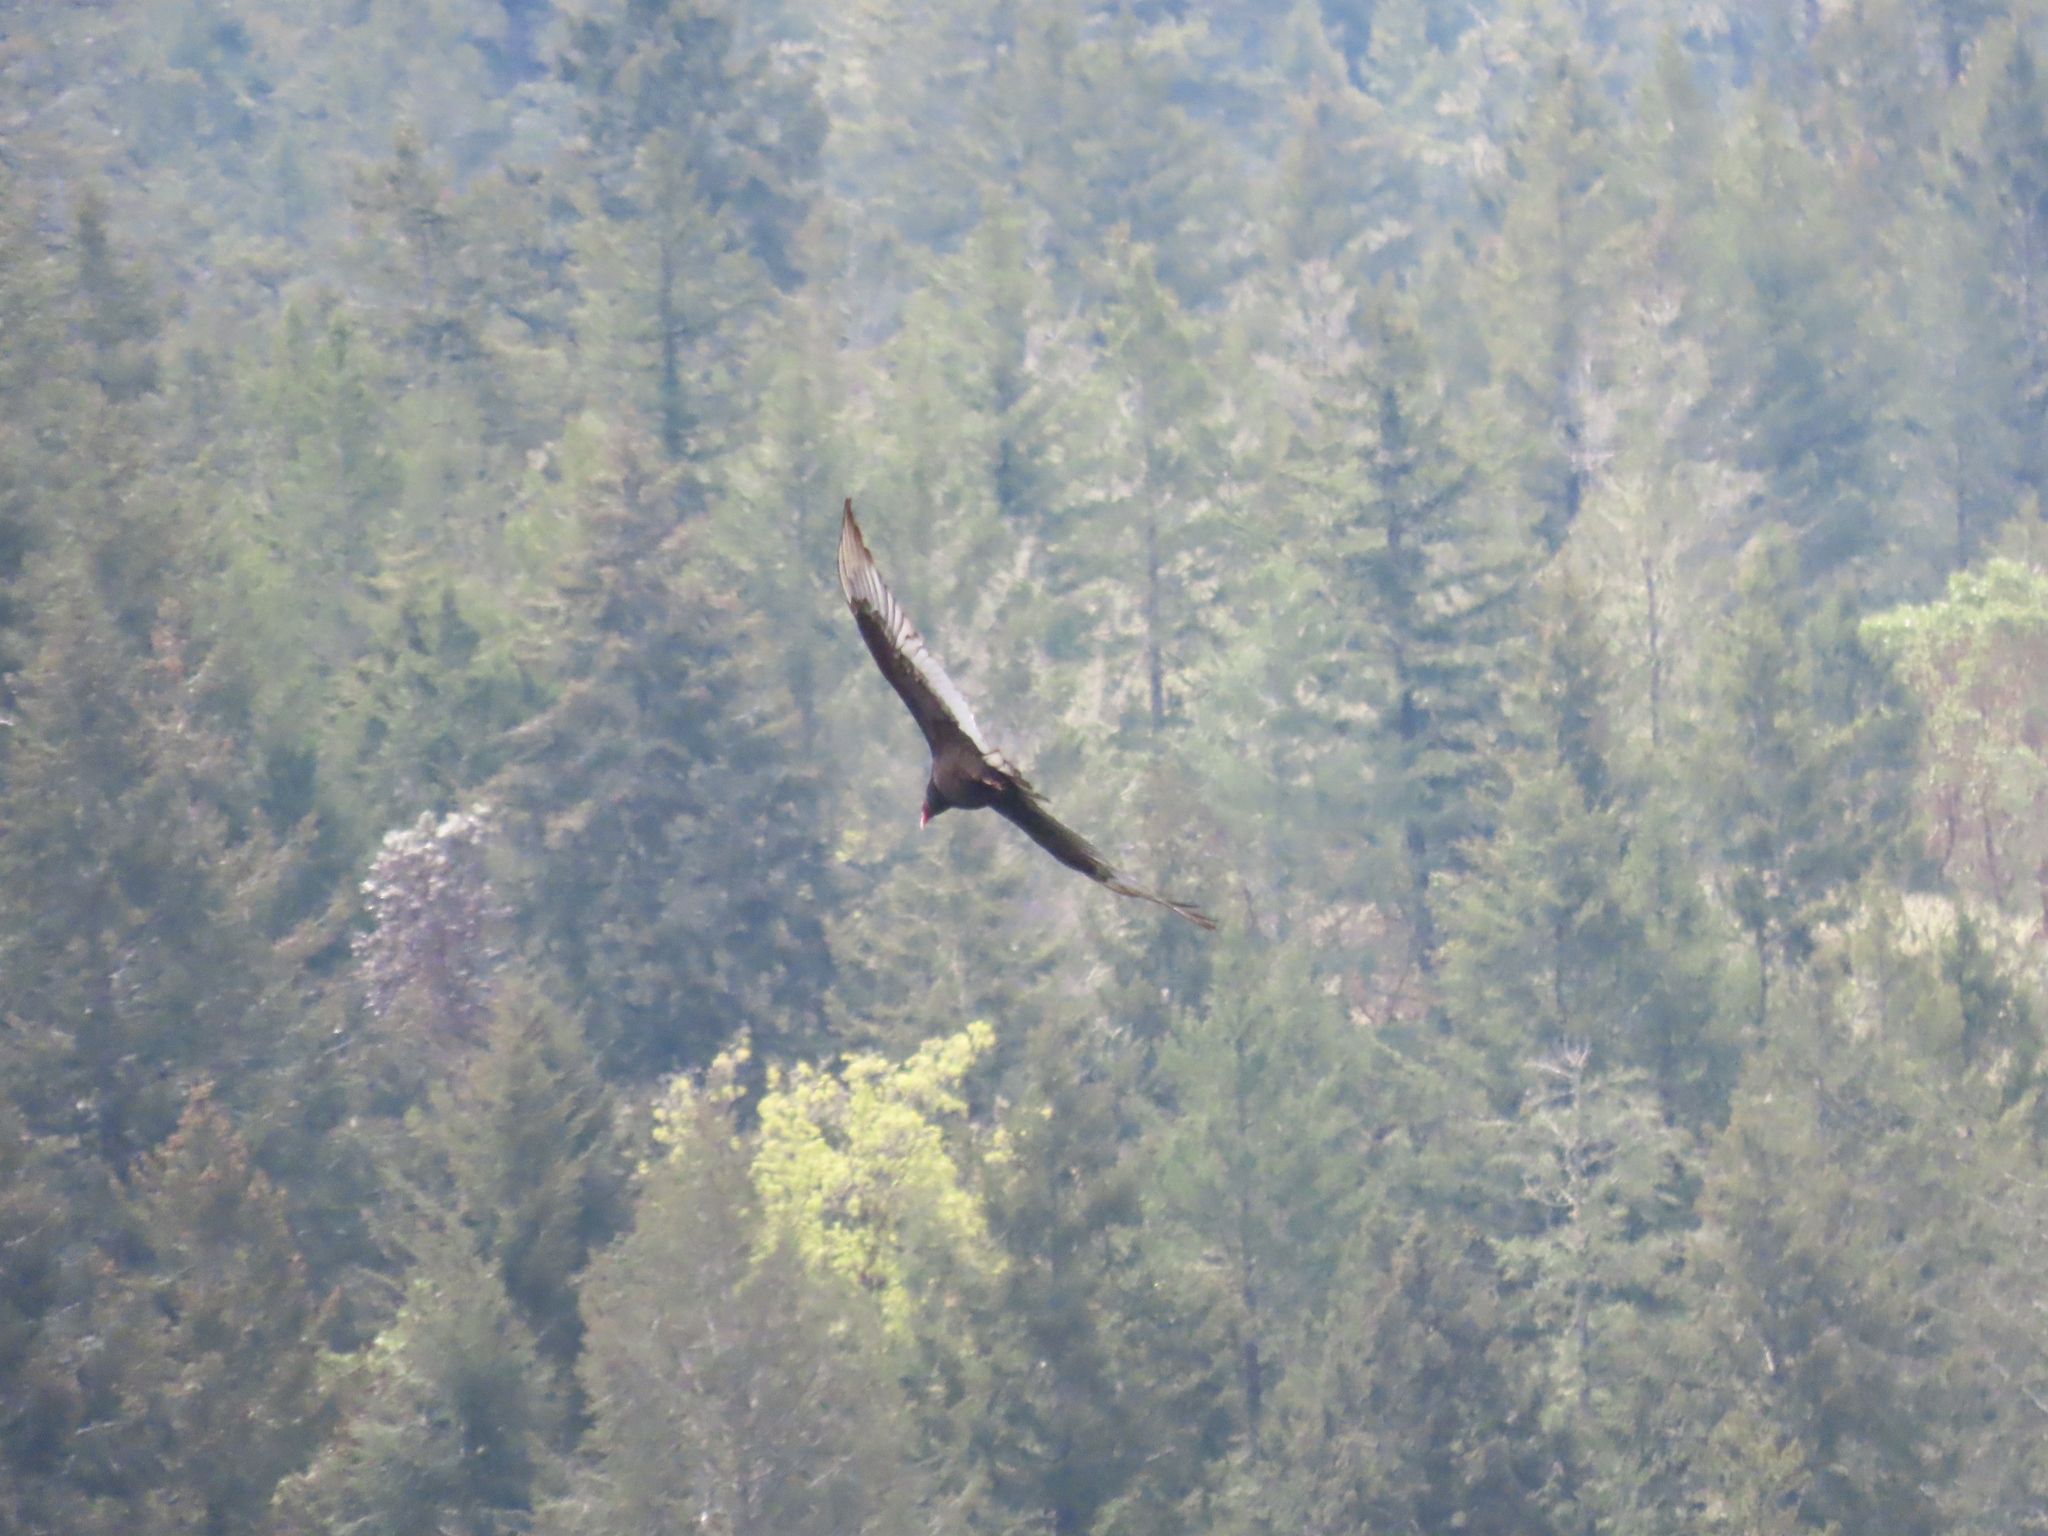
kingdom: Animalia
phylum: Chordata
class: Aves
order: Accipitriformes
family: Cathartidae
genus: Cathartes
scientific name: Cathartes aura
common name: Turkey vulture
